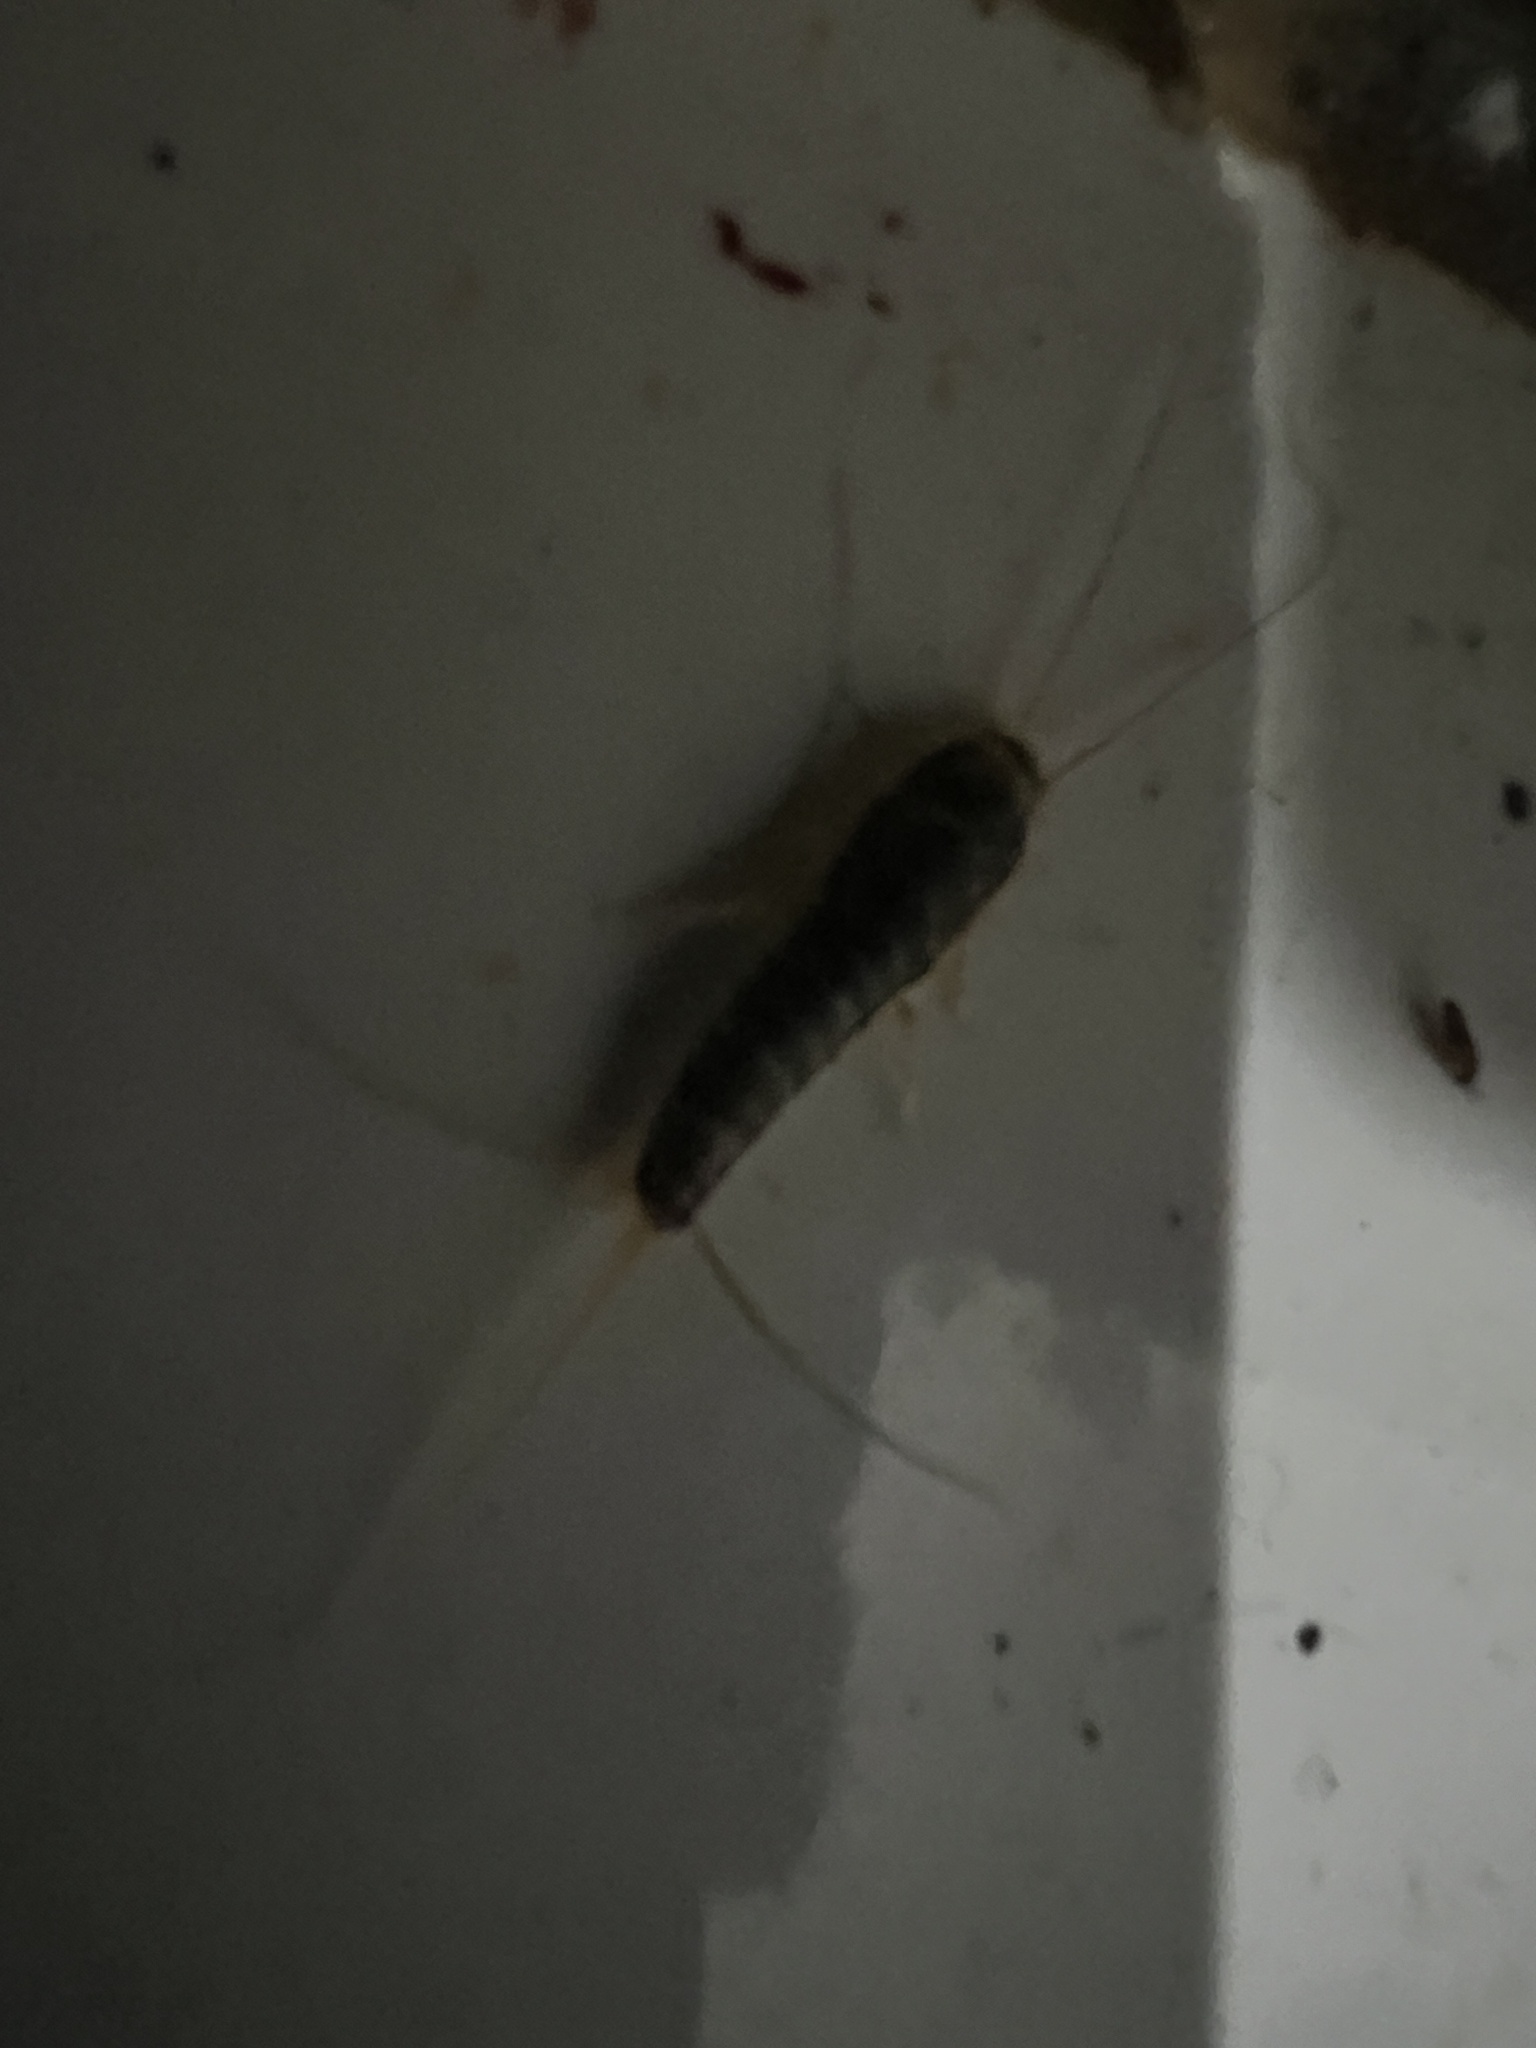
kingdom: Animalia
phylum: Arthropoda
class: Insecta
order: Zygentoma
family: Lepismatidae
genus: Ctenolepisma
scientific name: Ctenolepisma longicaudatum
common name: Silverfish
